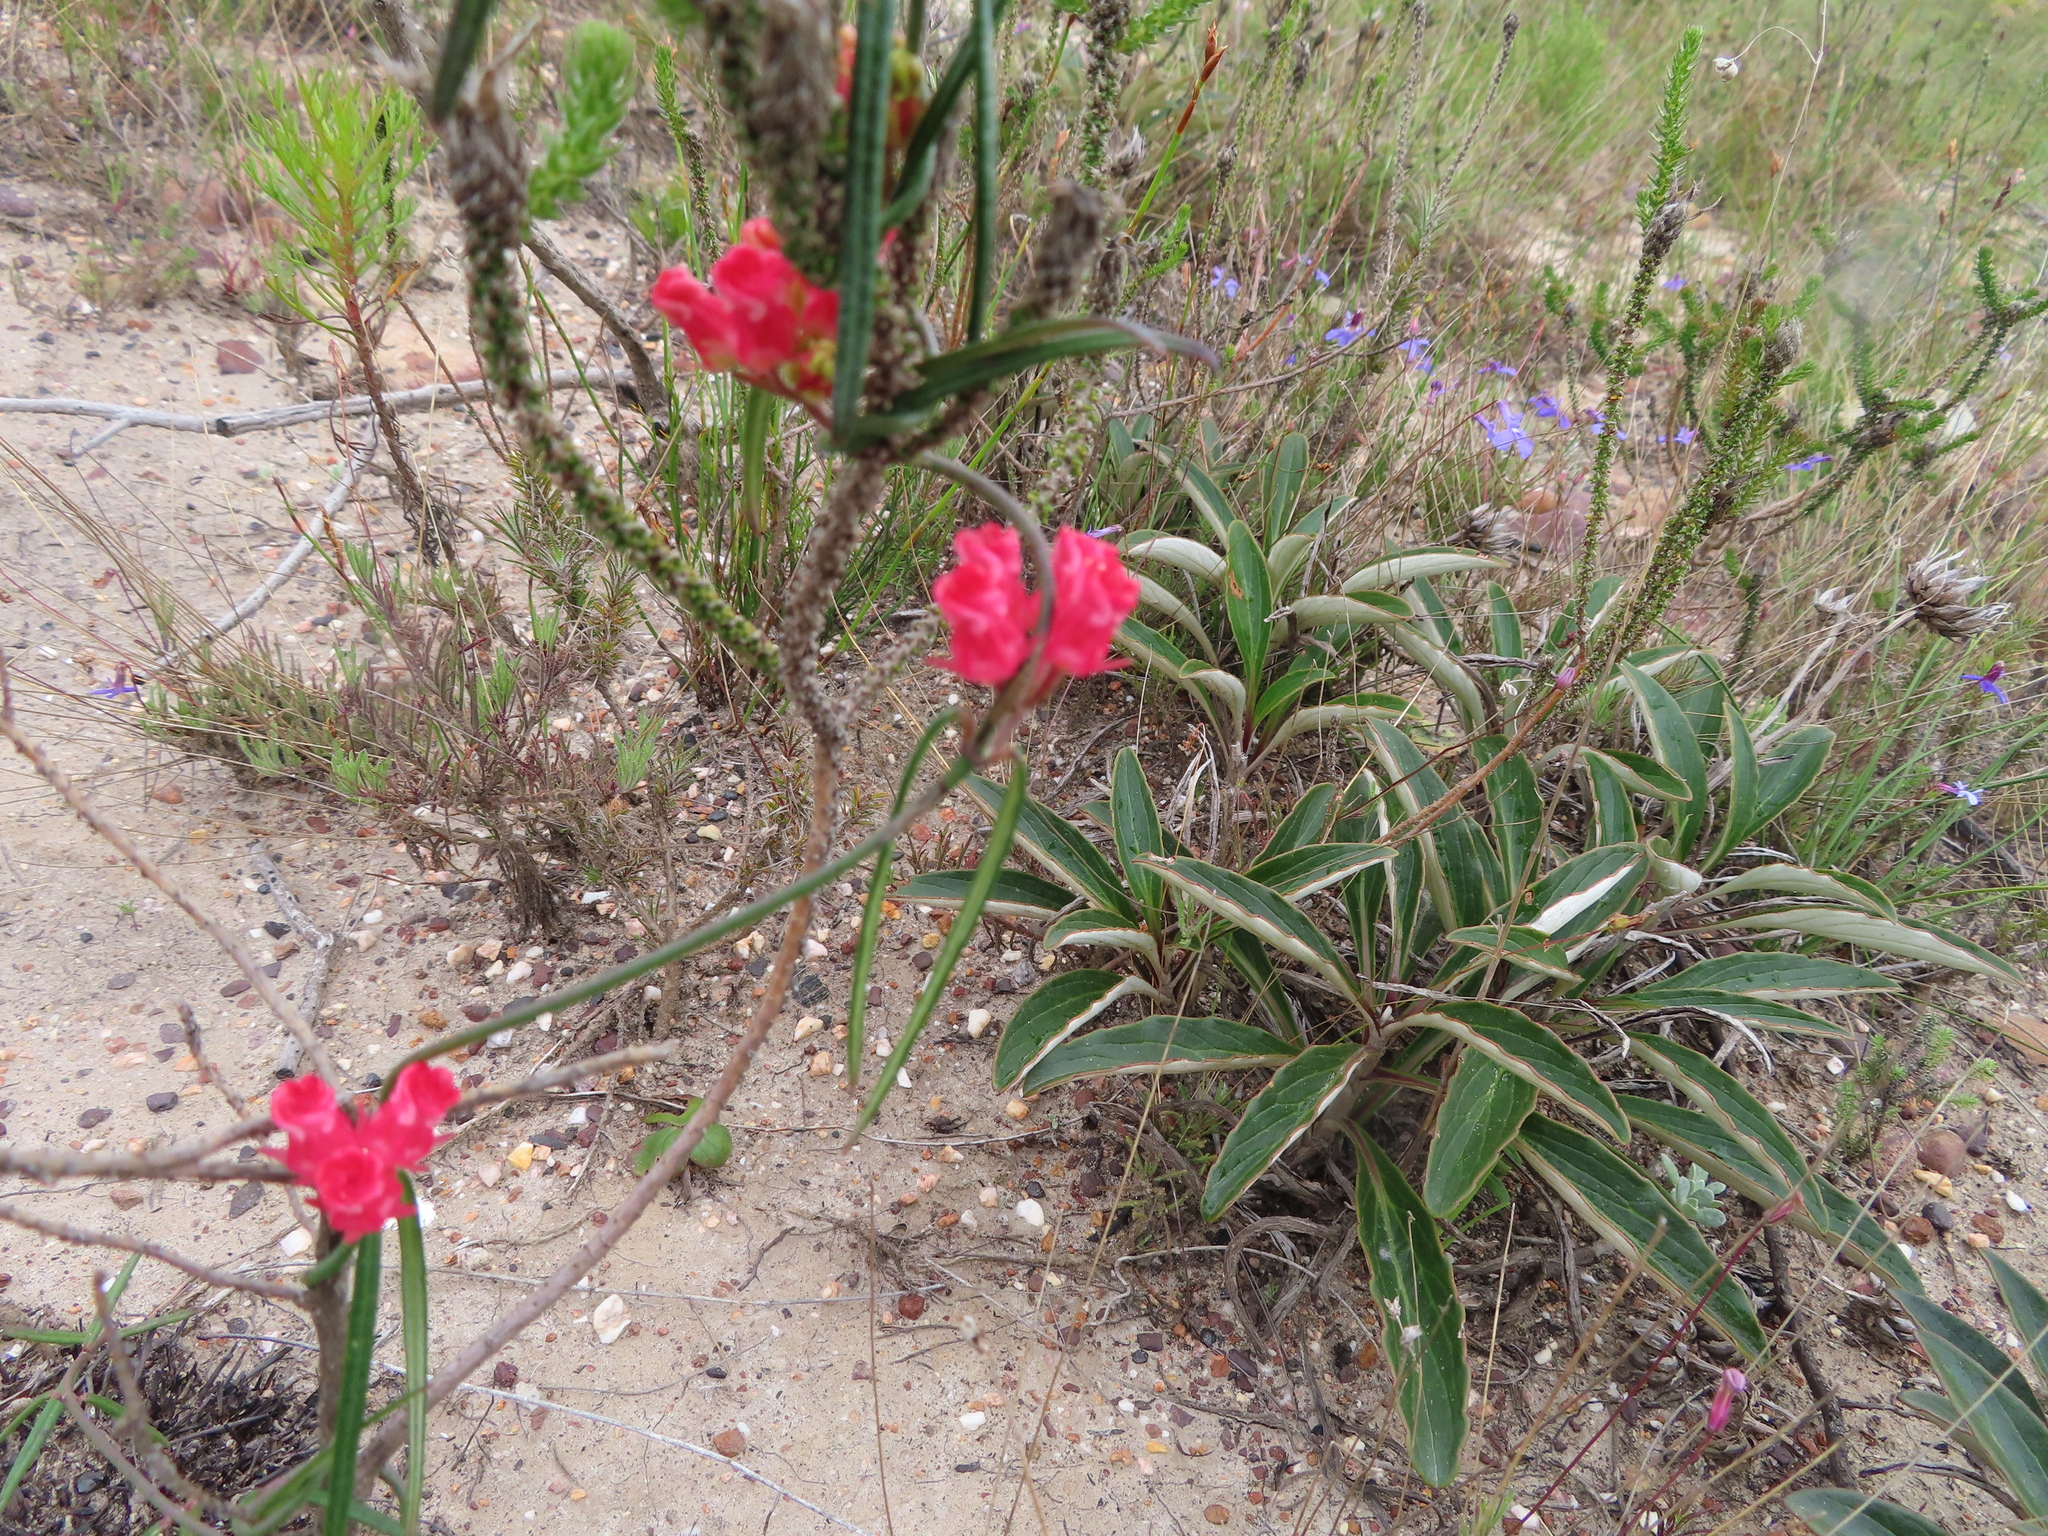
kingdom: Plantae
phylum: Tracheophyta
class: Magnoliopsida
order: Gentianales
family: Apocynaceae
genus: Microloma
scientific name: Microloma tenuifolium
